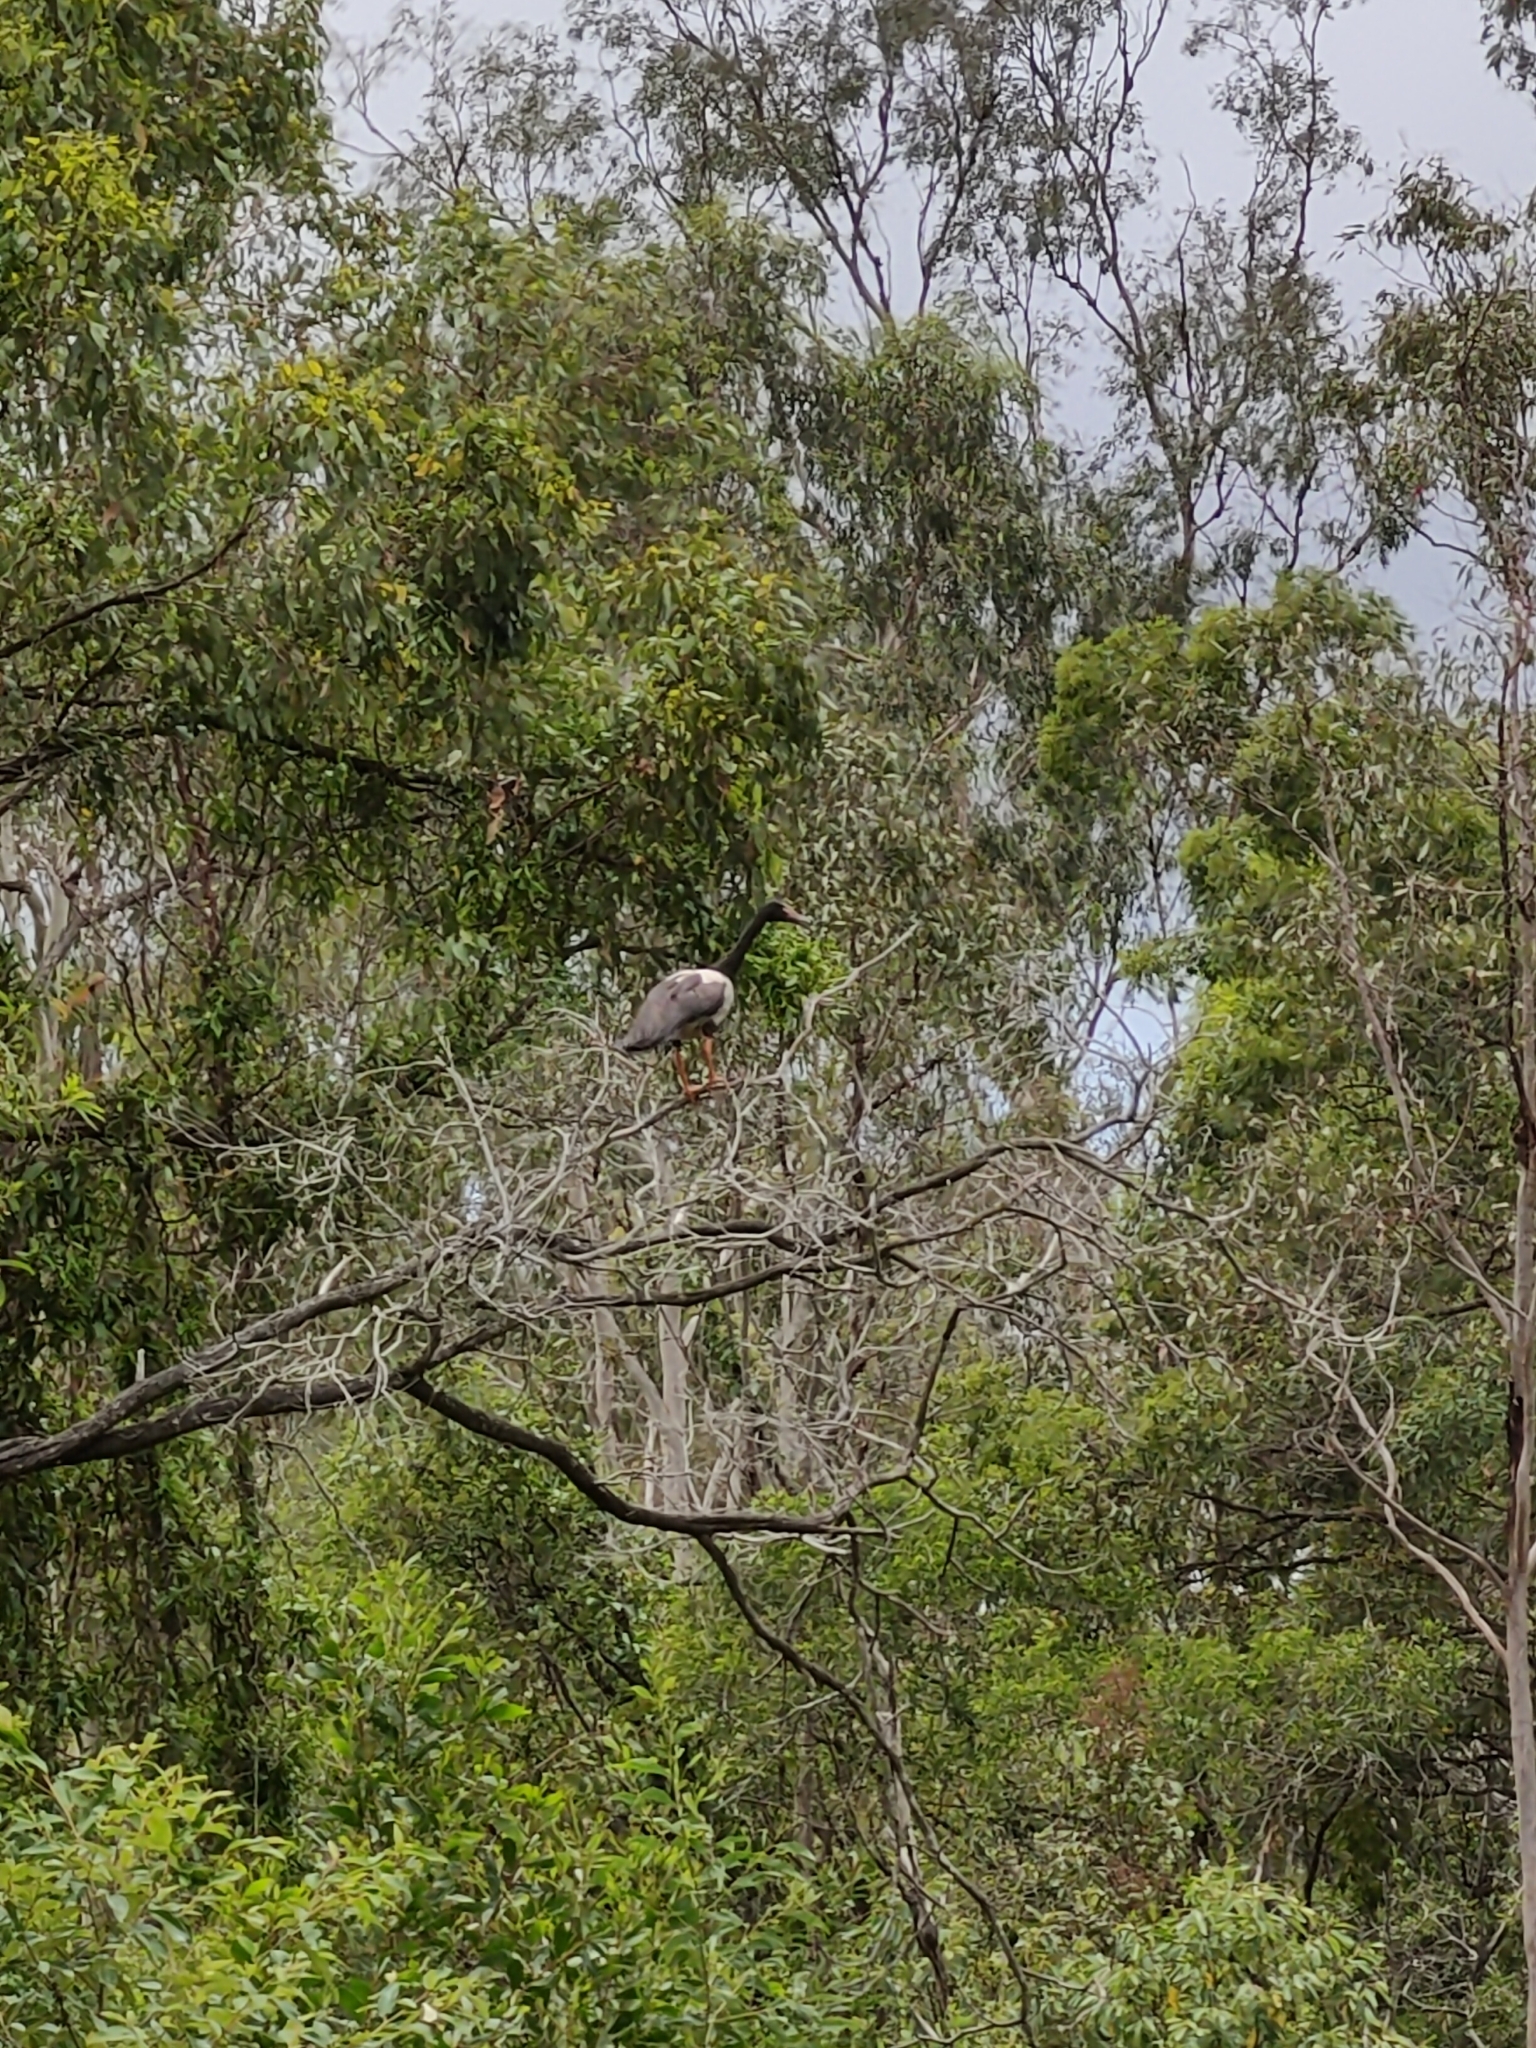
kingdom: Animalia
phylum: Chordata
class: Aves
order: Anseriformes
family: Anseranatidae
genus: Anseranas
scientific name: Anseranas semipalmata
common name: Magpie goose
